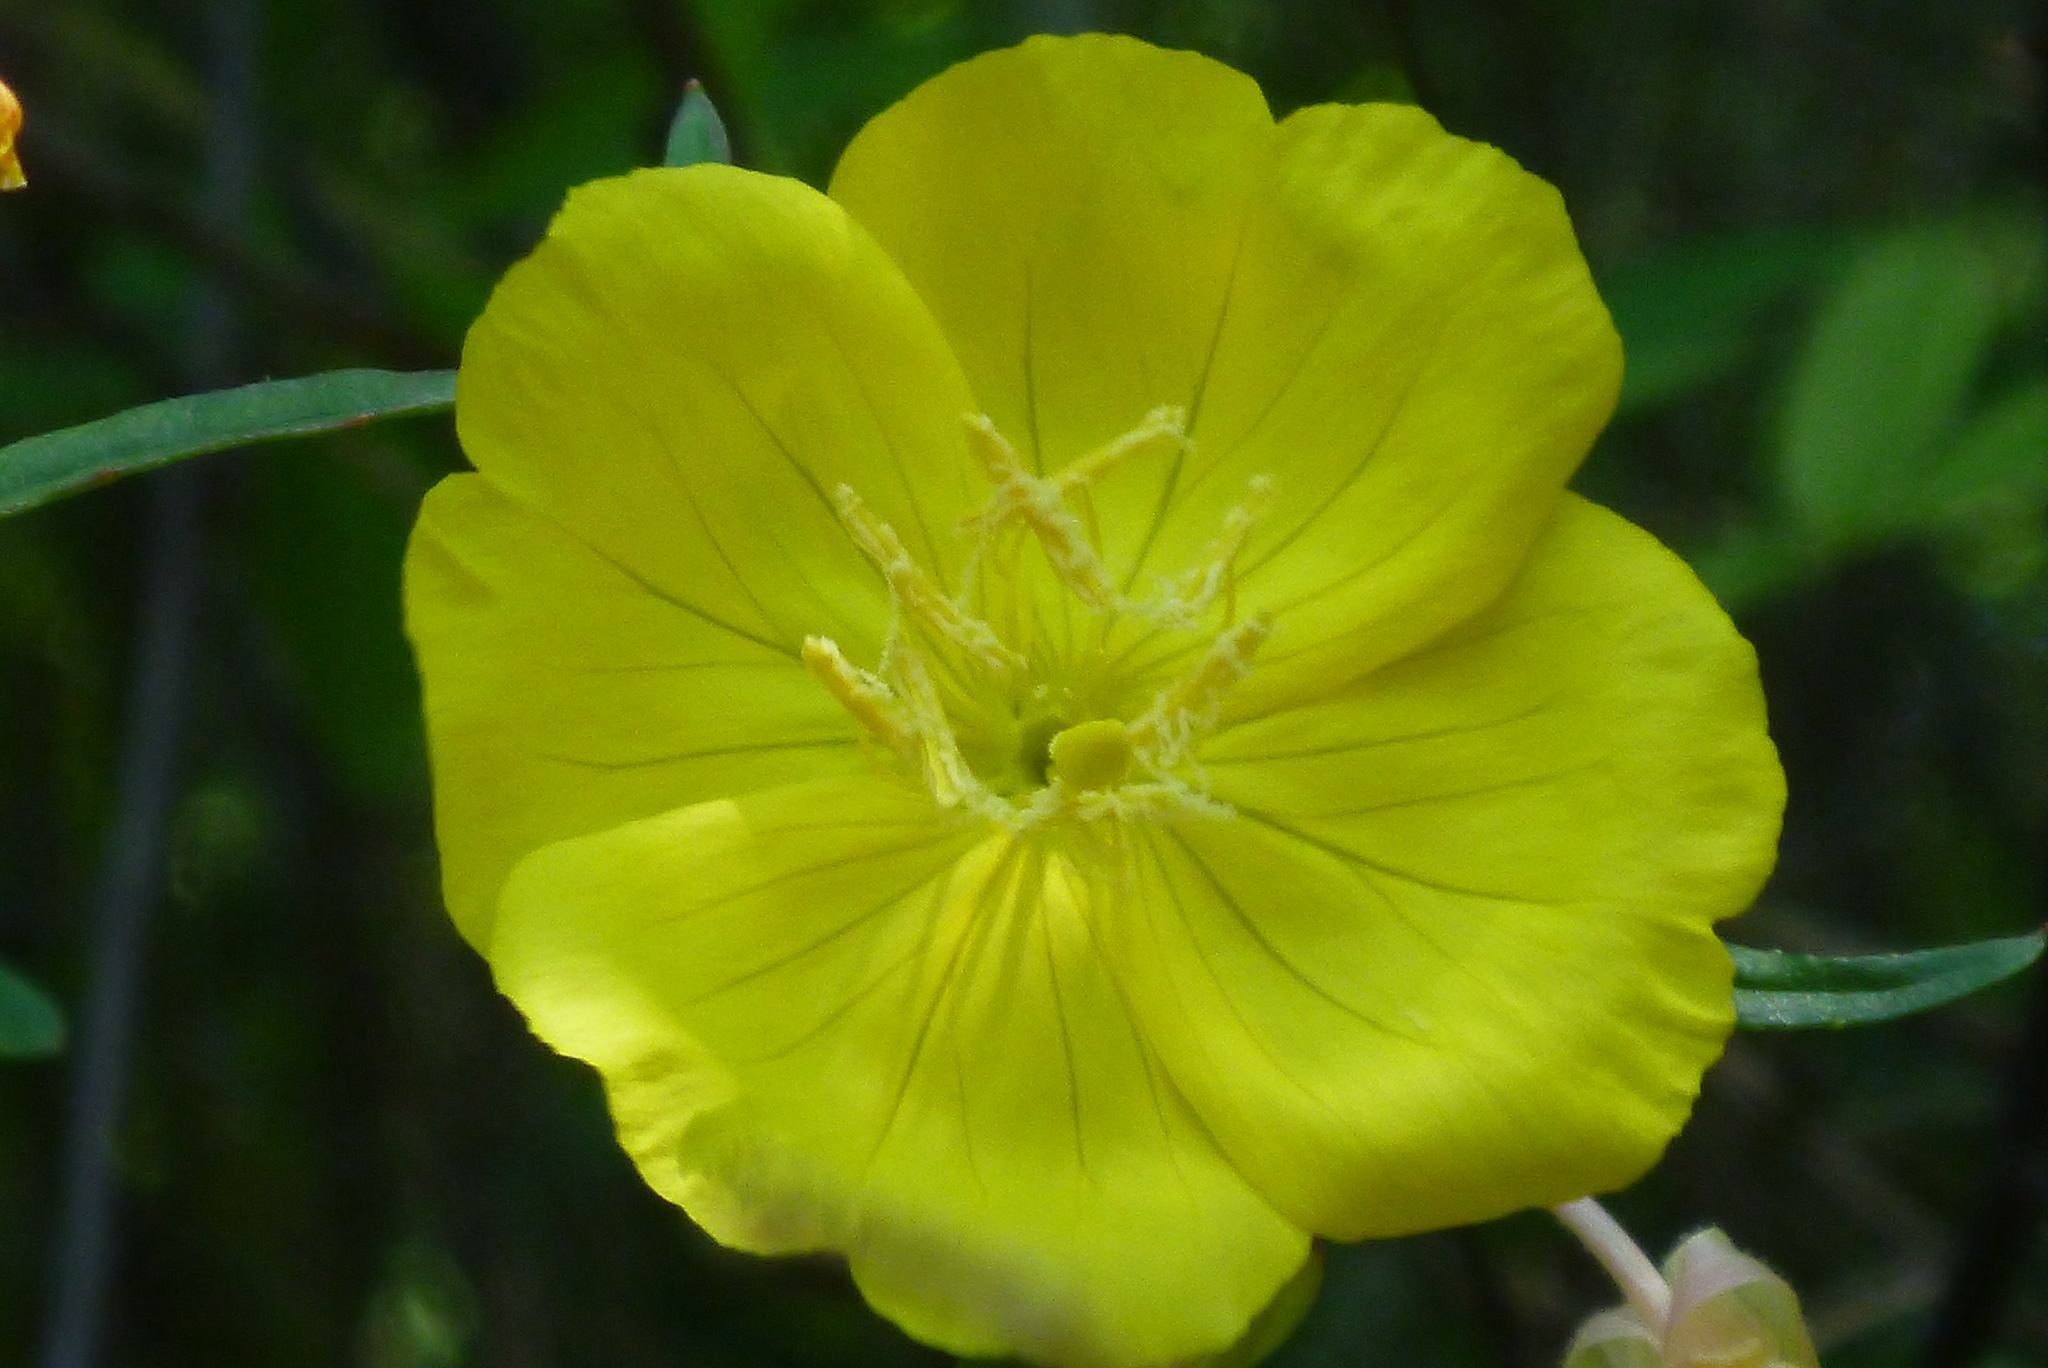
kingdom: Plantae
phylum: Tracheophyta
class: Magnoliopsida
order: Myrtales
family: Onagraceae
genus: Oenothera
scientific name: Oenothera fruticosa
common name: Southern sundrops
